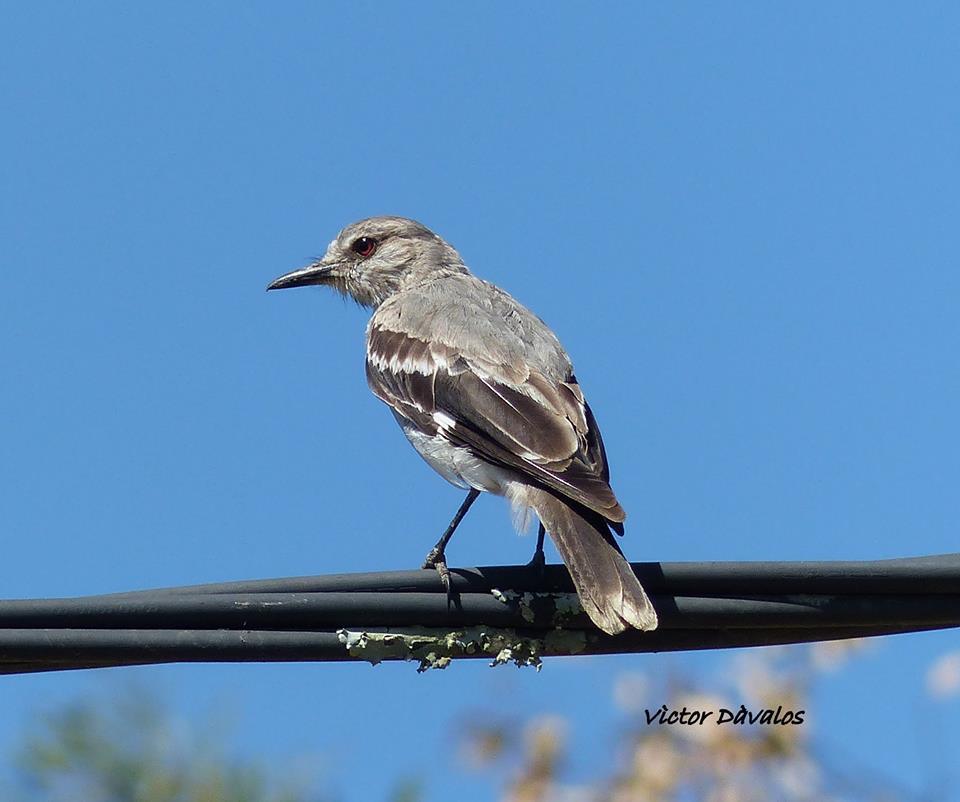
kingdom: Animalia
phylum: Chordata
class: Aves
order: Passeriformes
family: Tyrannidae
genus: Xolmis
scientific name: Xolmis cinereus
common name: Grey monjita
